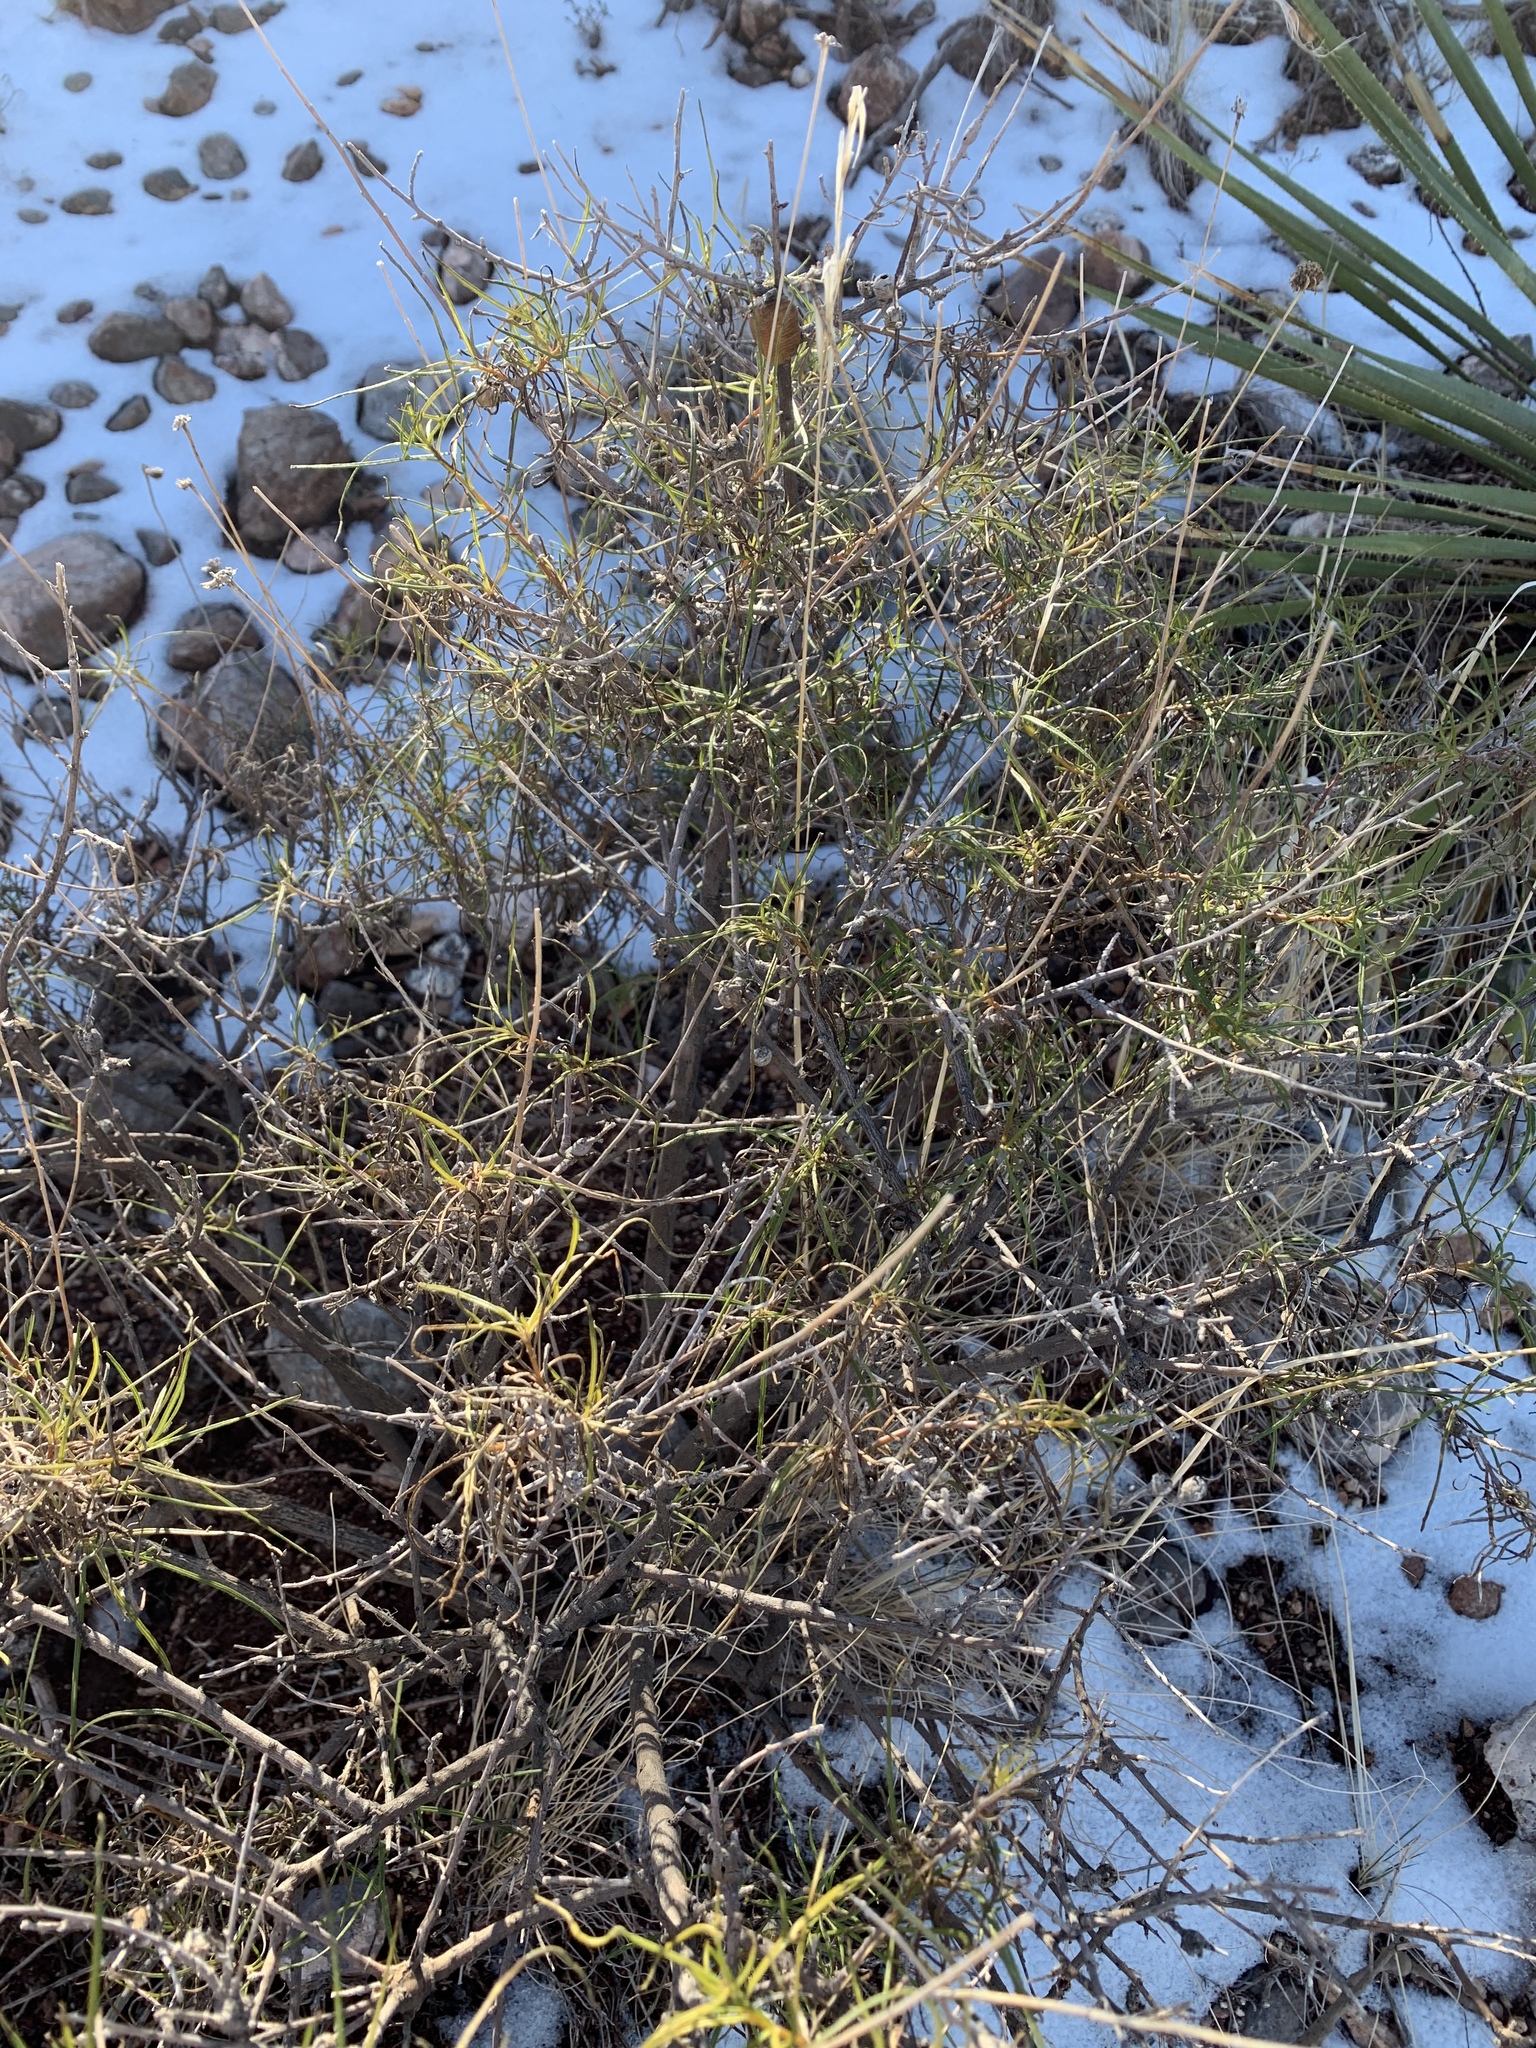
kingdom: Plantae
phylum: Tracheophyta
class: Magnoliopsida
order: Asterales
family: Asteraceae
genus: Sidneya
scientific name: Sidneya tenuifolia
